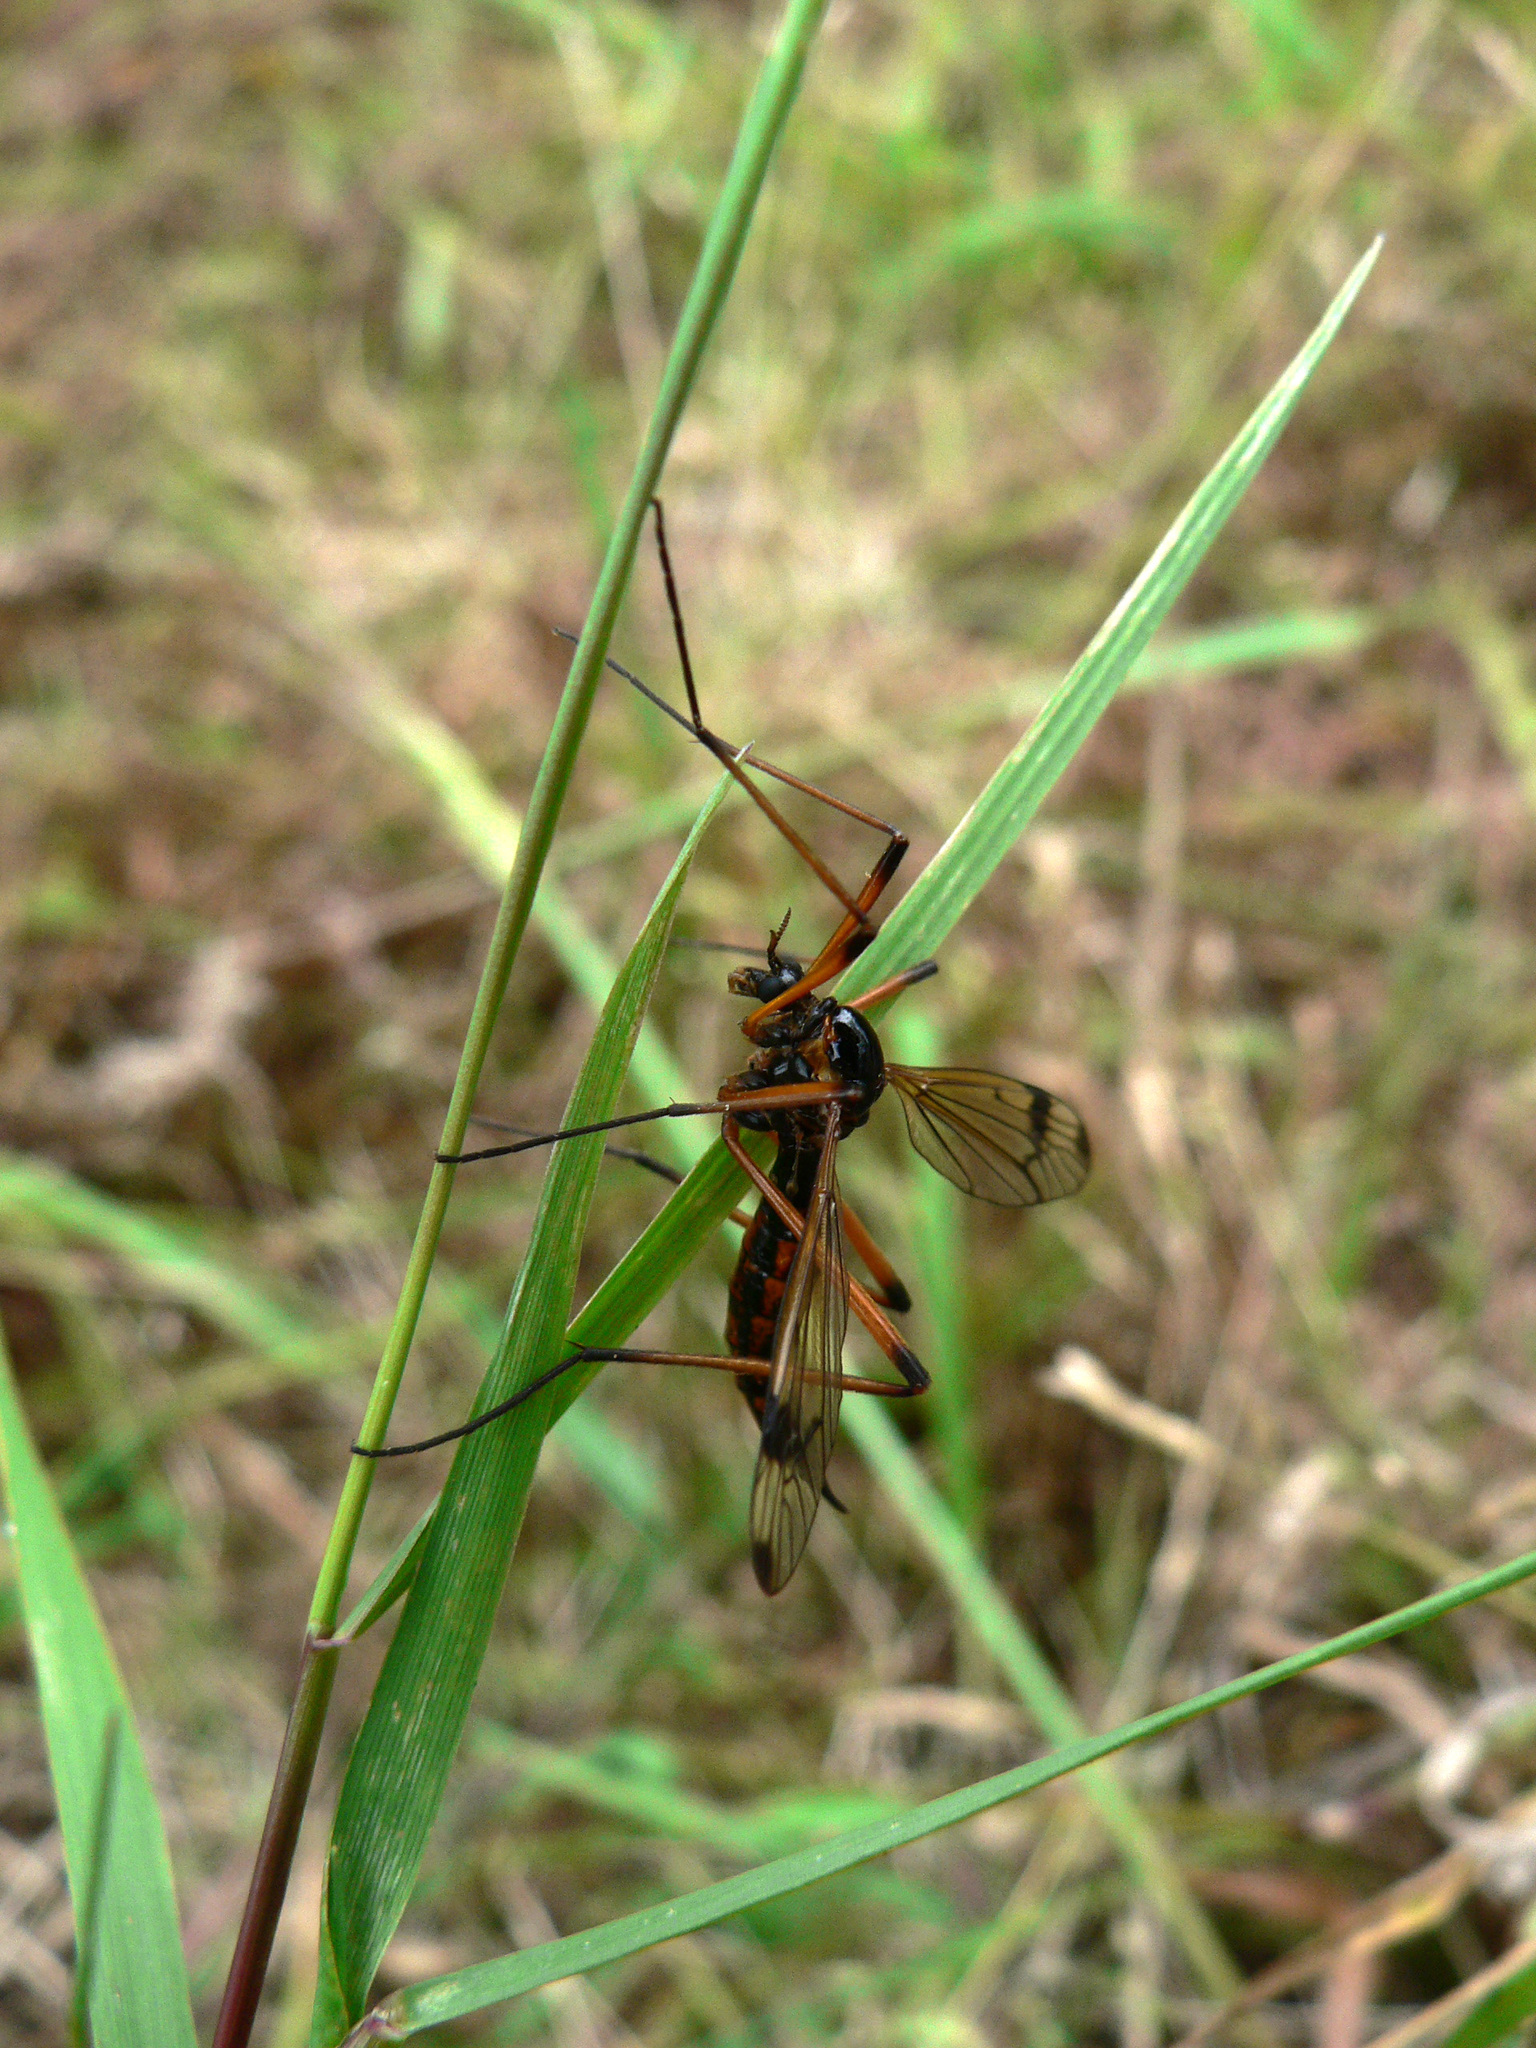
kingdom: Animalia
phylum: Arthropoda
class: Insecta
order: Diptera
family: Tipulidae
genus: Dictenidia
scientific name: Dictenidia bimaculata
